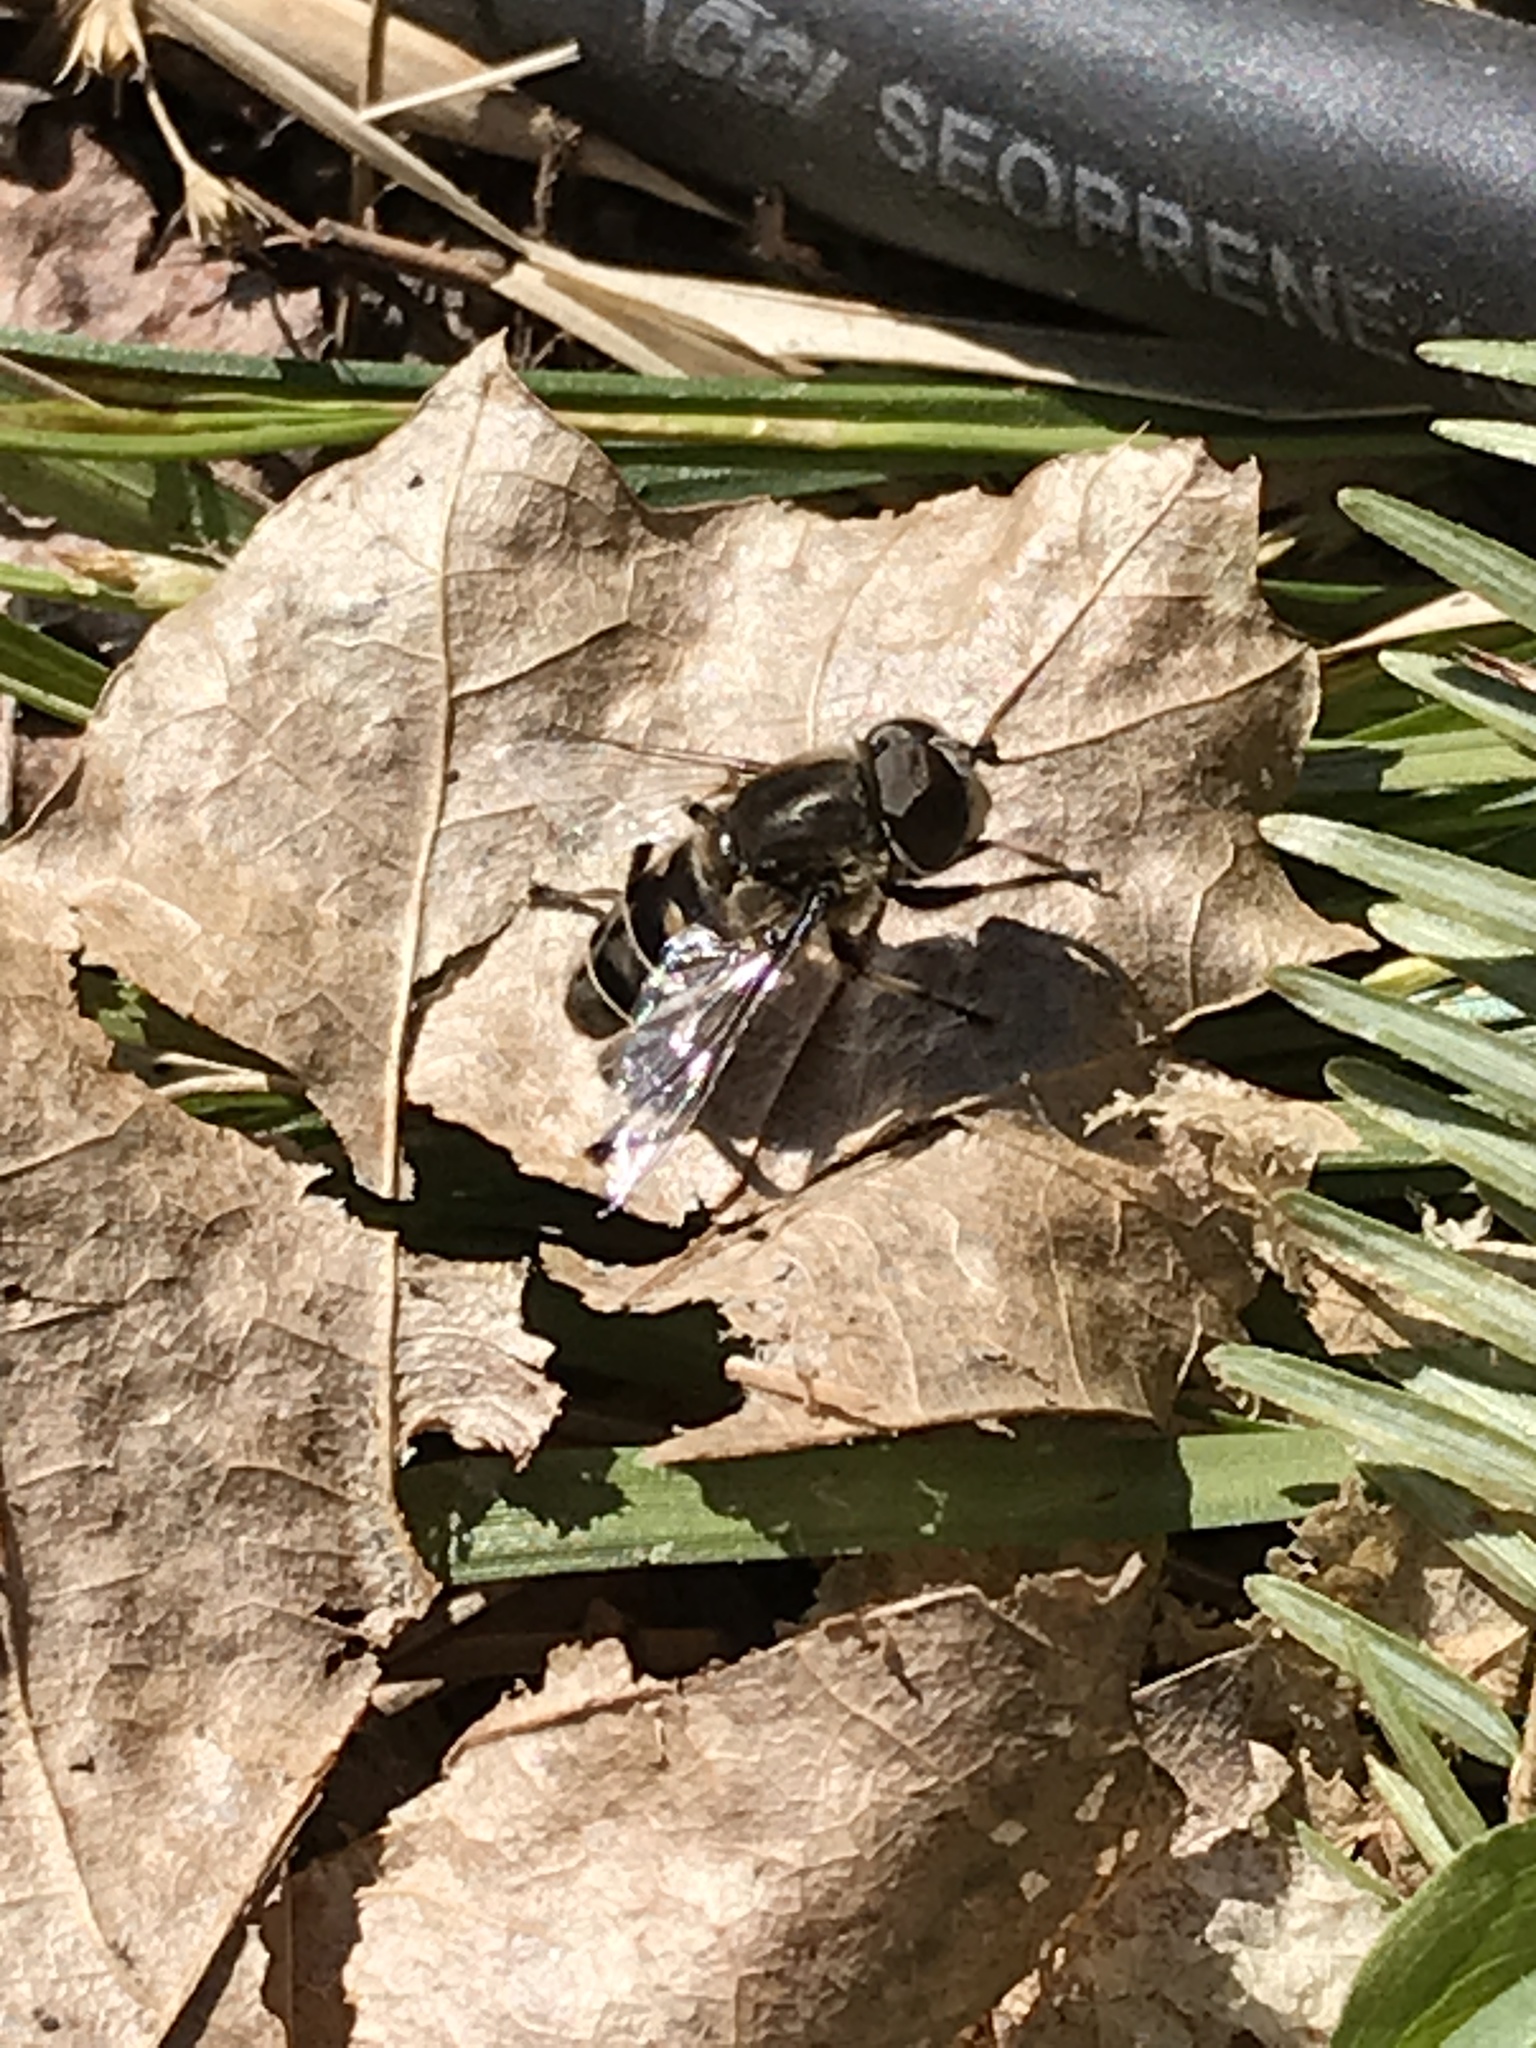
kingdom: Animalia
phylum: Arthropoda
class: Insecta
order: Diptera
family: Syrphidae
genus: Eristalis
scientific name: Eristalis dimidiata
